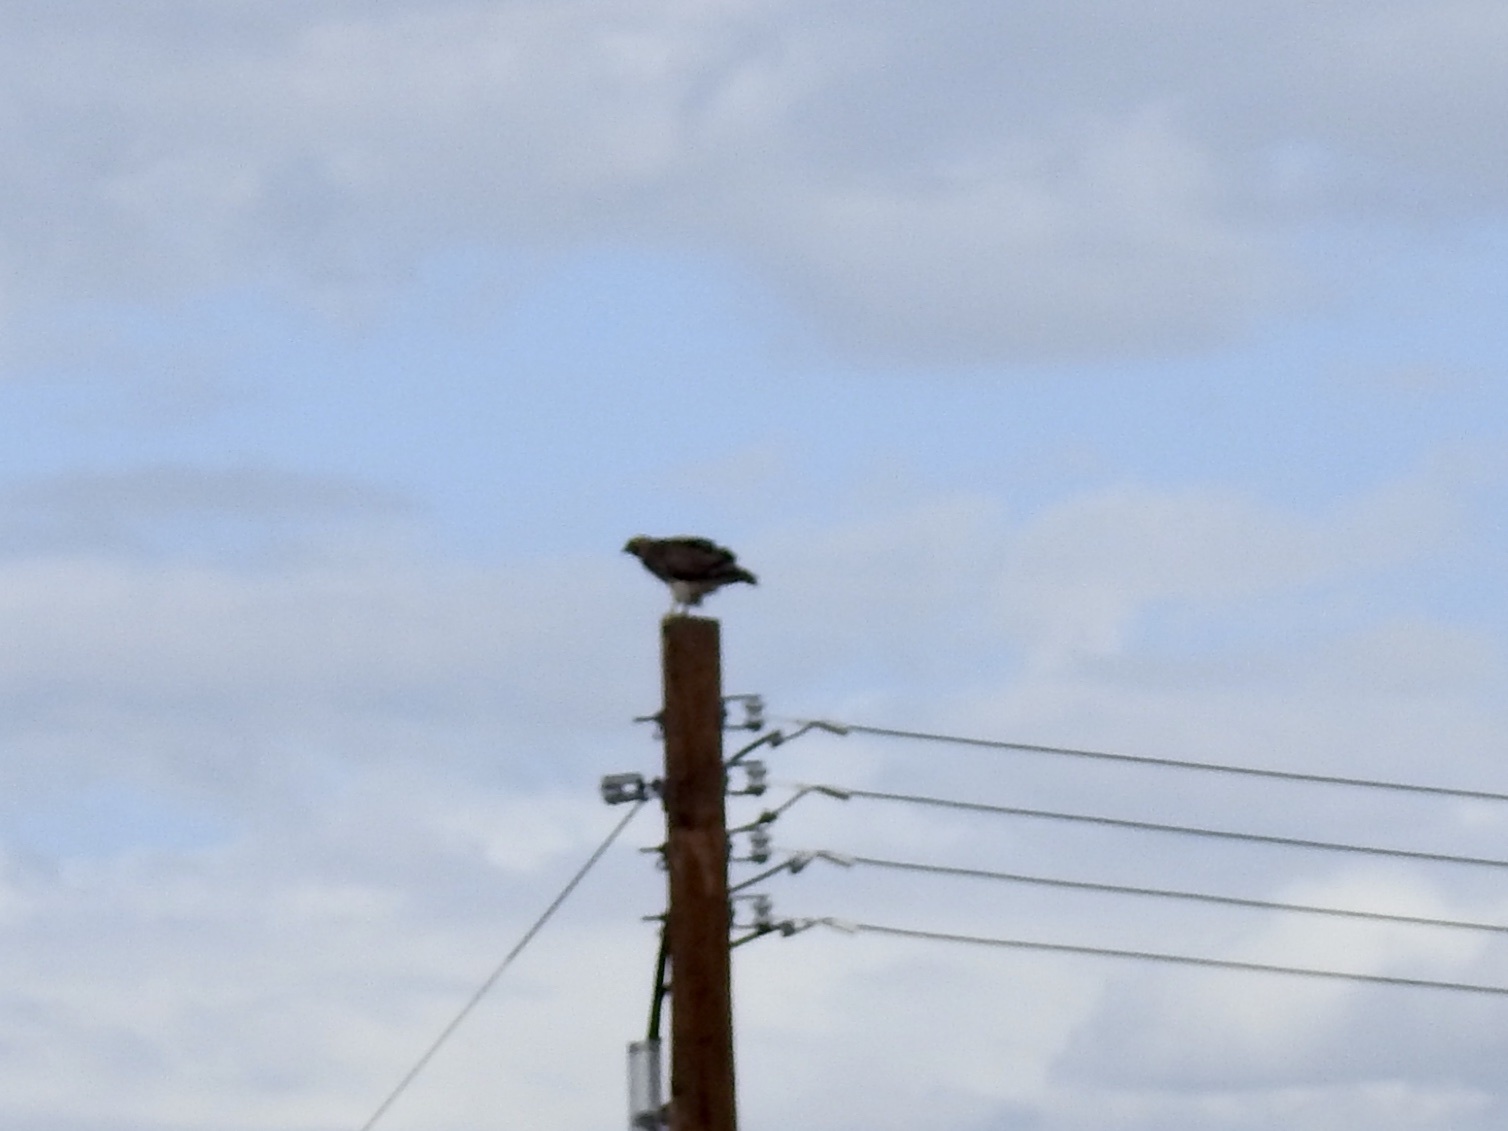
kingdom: Animalia
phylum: Chordata
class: Aves
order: Accipitriformes
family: Accipitridae
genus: Buteo
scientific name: Buteo jamaicensis
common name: Red-tailed hawk
